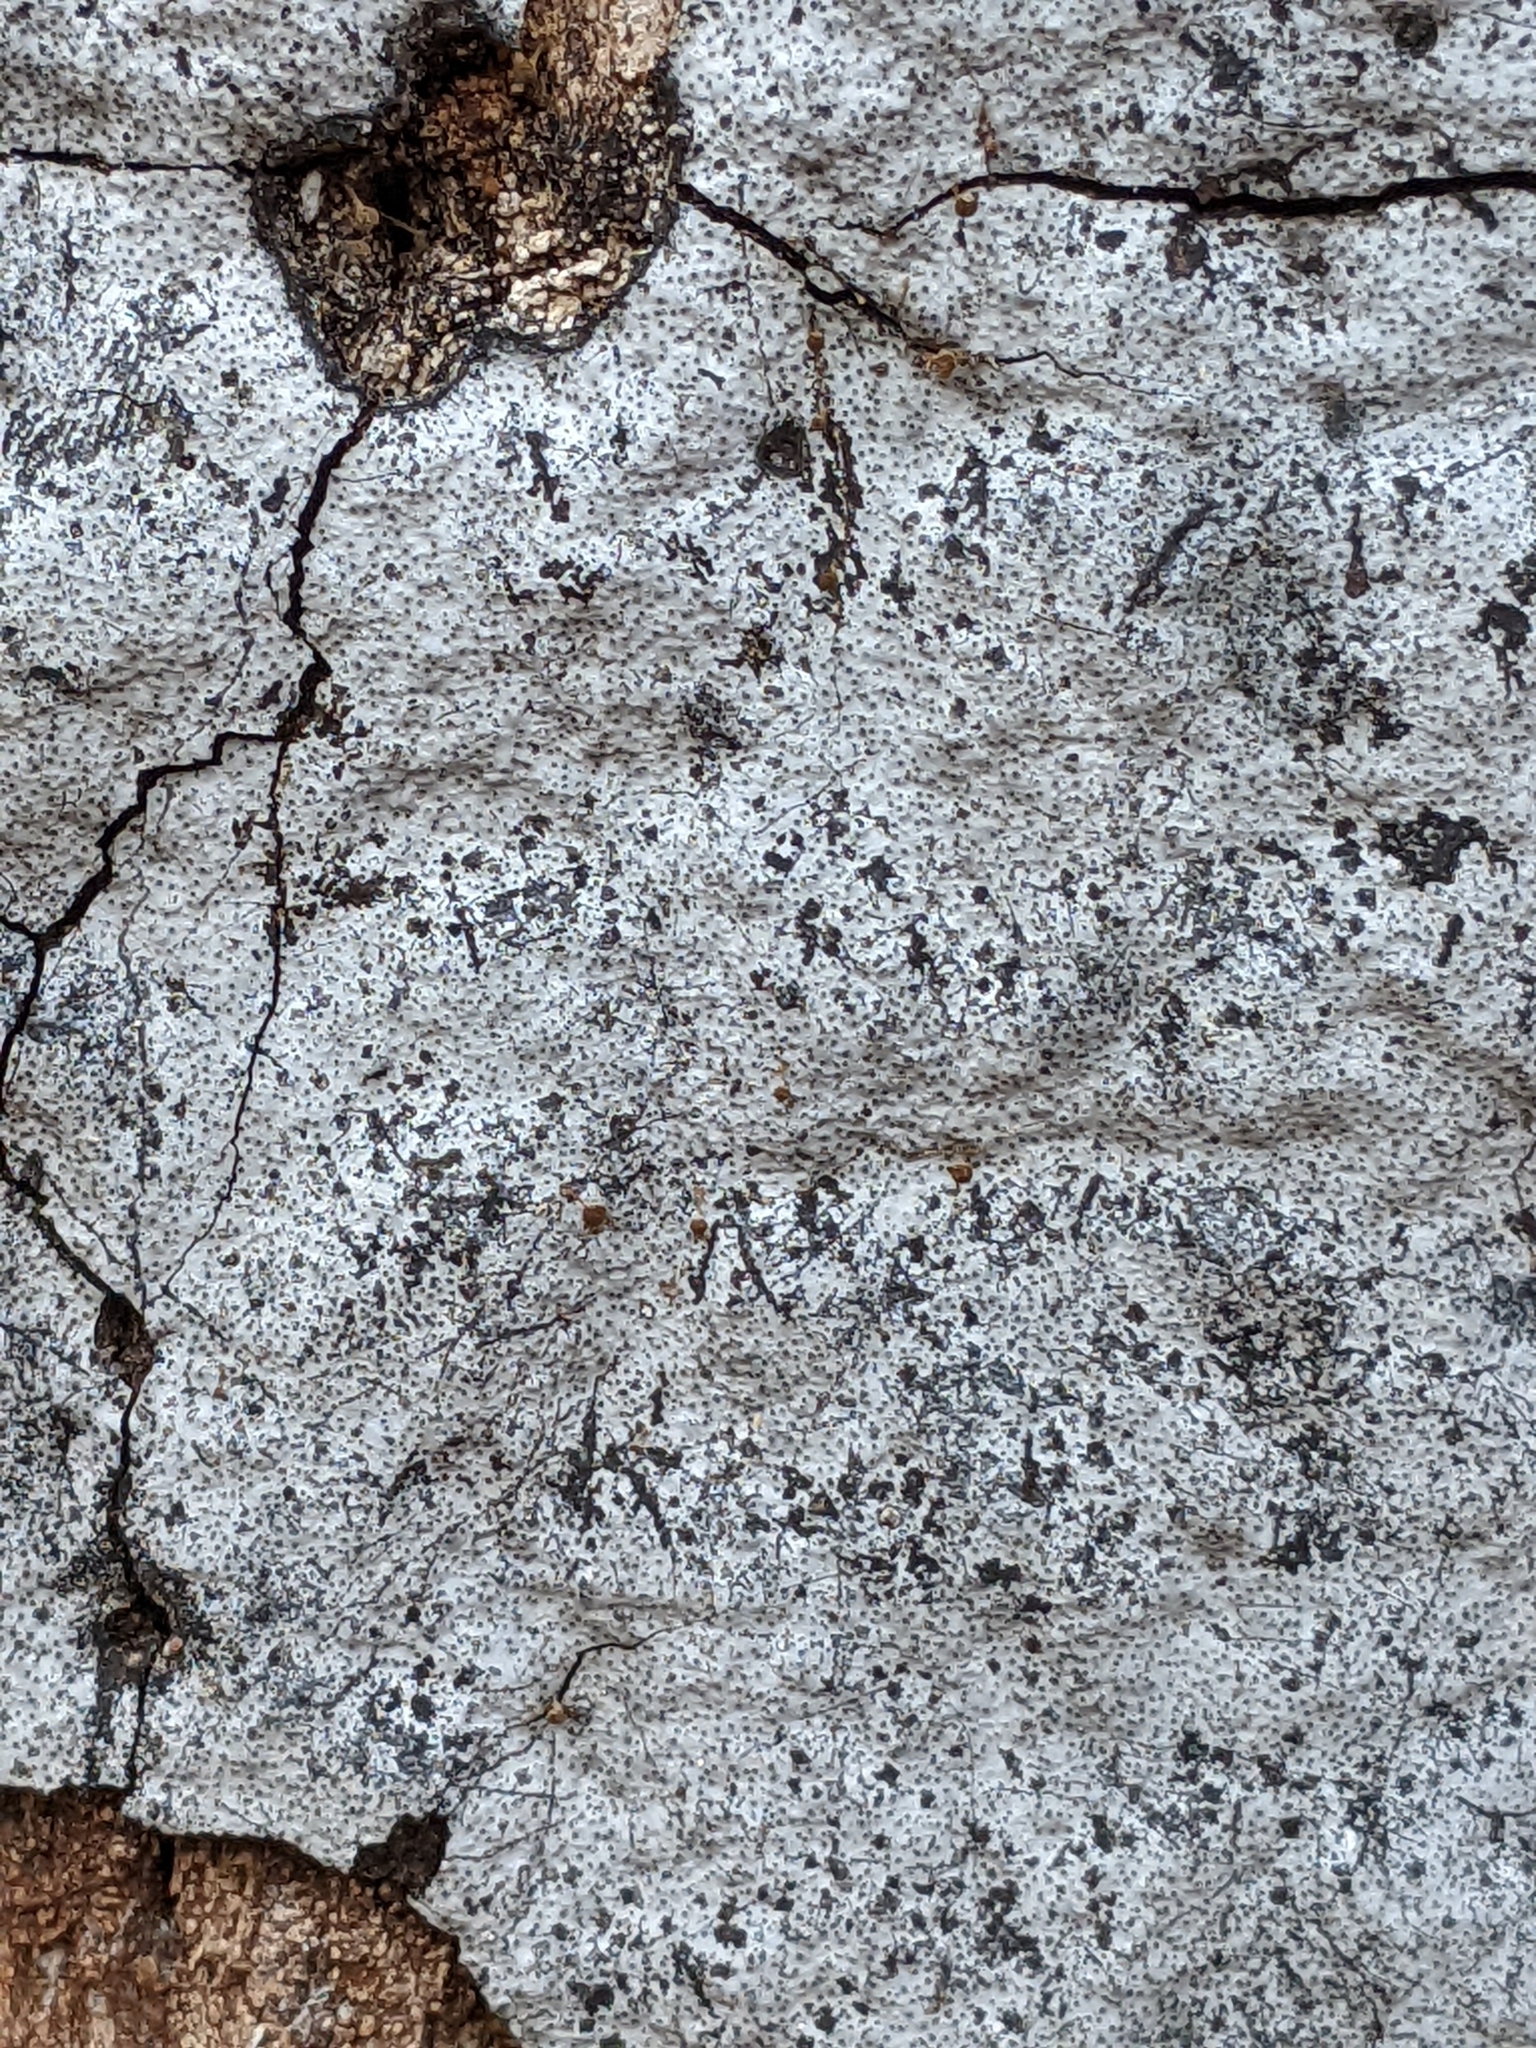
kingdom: Fungi
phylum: Ascomycota
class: Sordariomycetes
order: Xylariales
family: Graphostromataceae
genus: Biscogniauxia
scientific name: Biscogniauxia atropunctata
